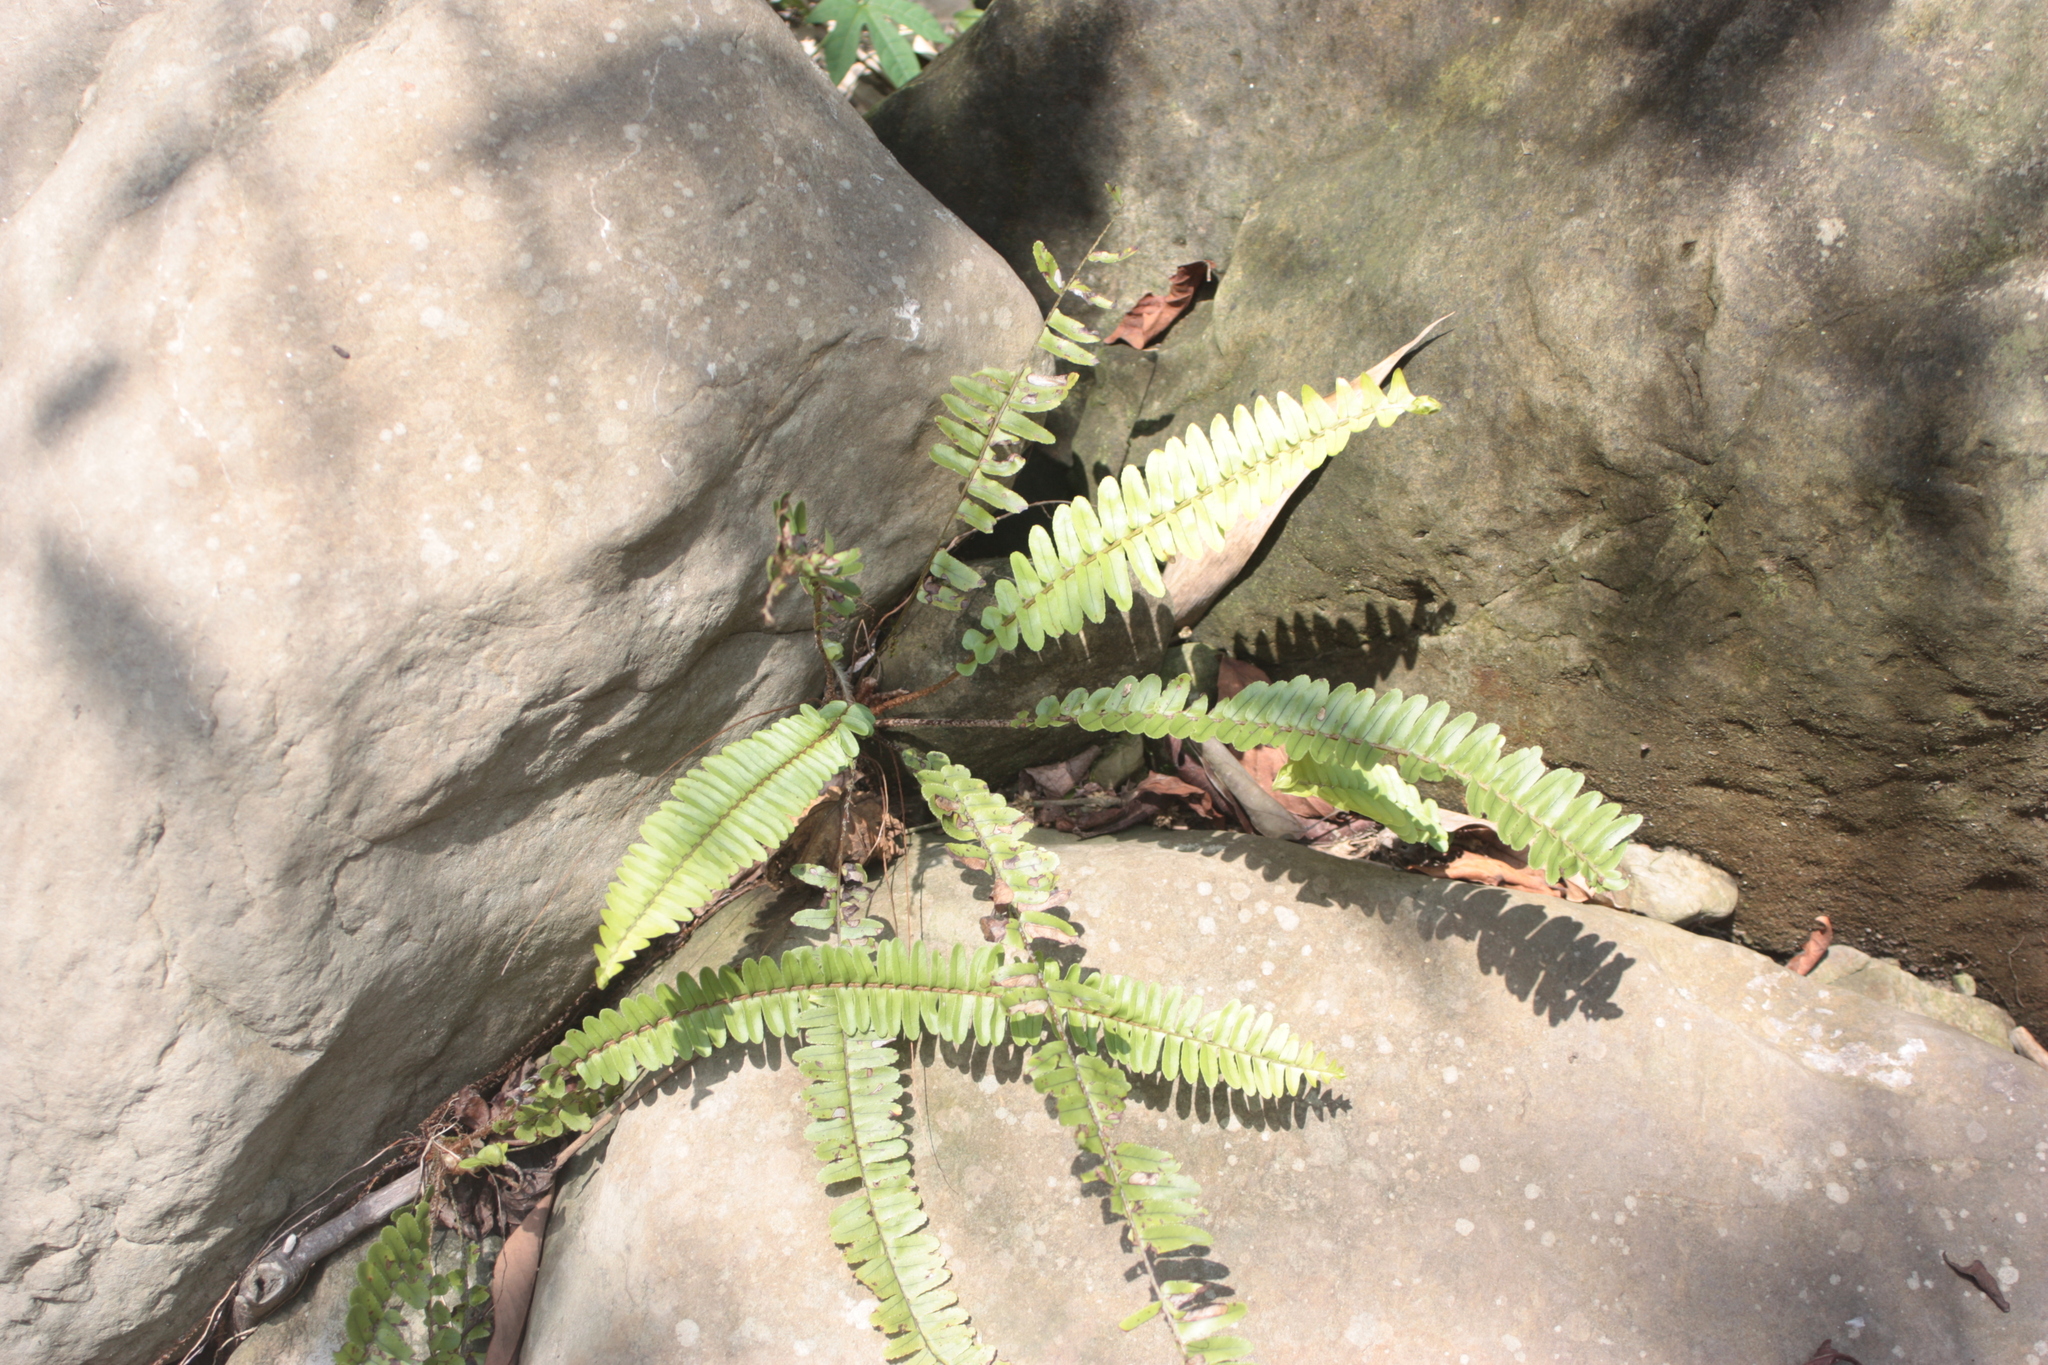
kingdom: Plantae
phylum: Tracheophyta
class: Polypodiopsida
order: Polypodiales
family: Nephrolepidaceae
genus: Nephrolepis
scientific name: Nephrolepis cordifolia
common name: Narrow swordfern
